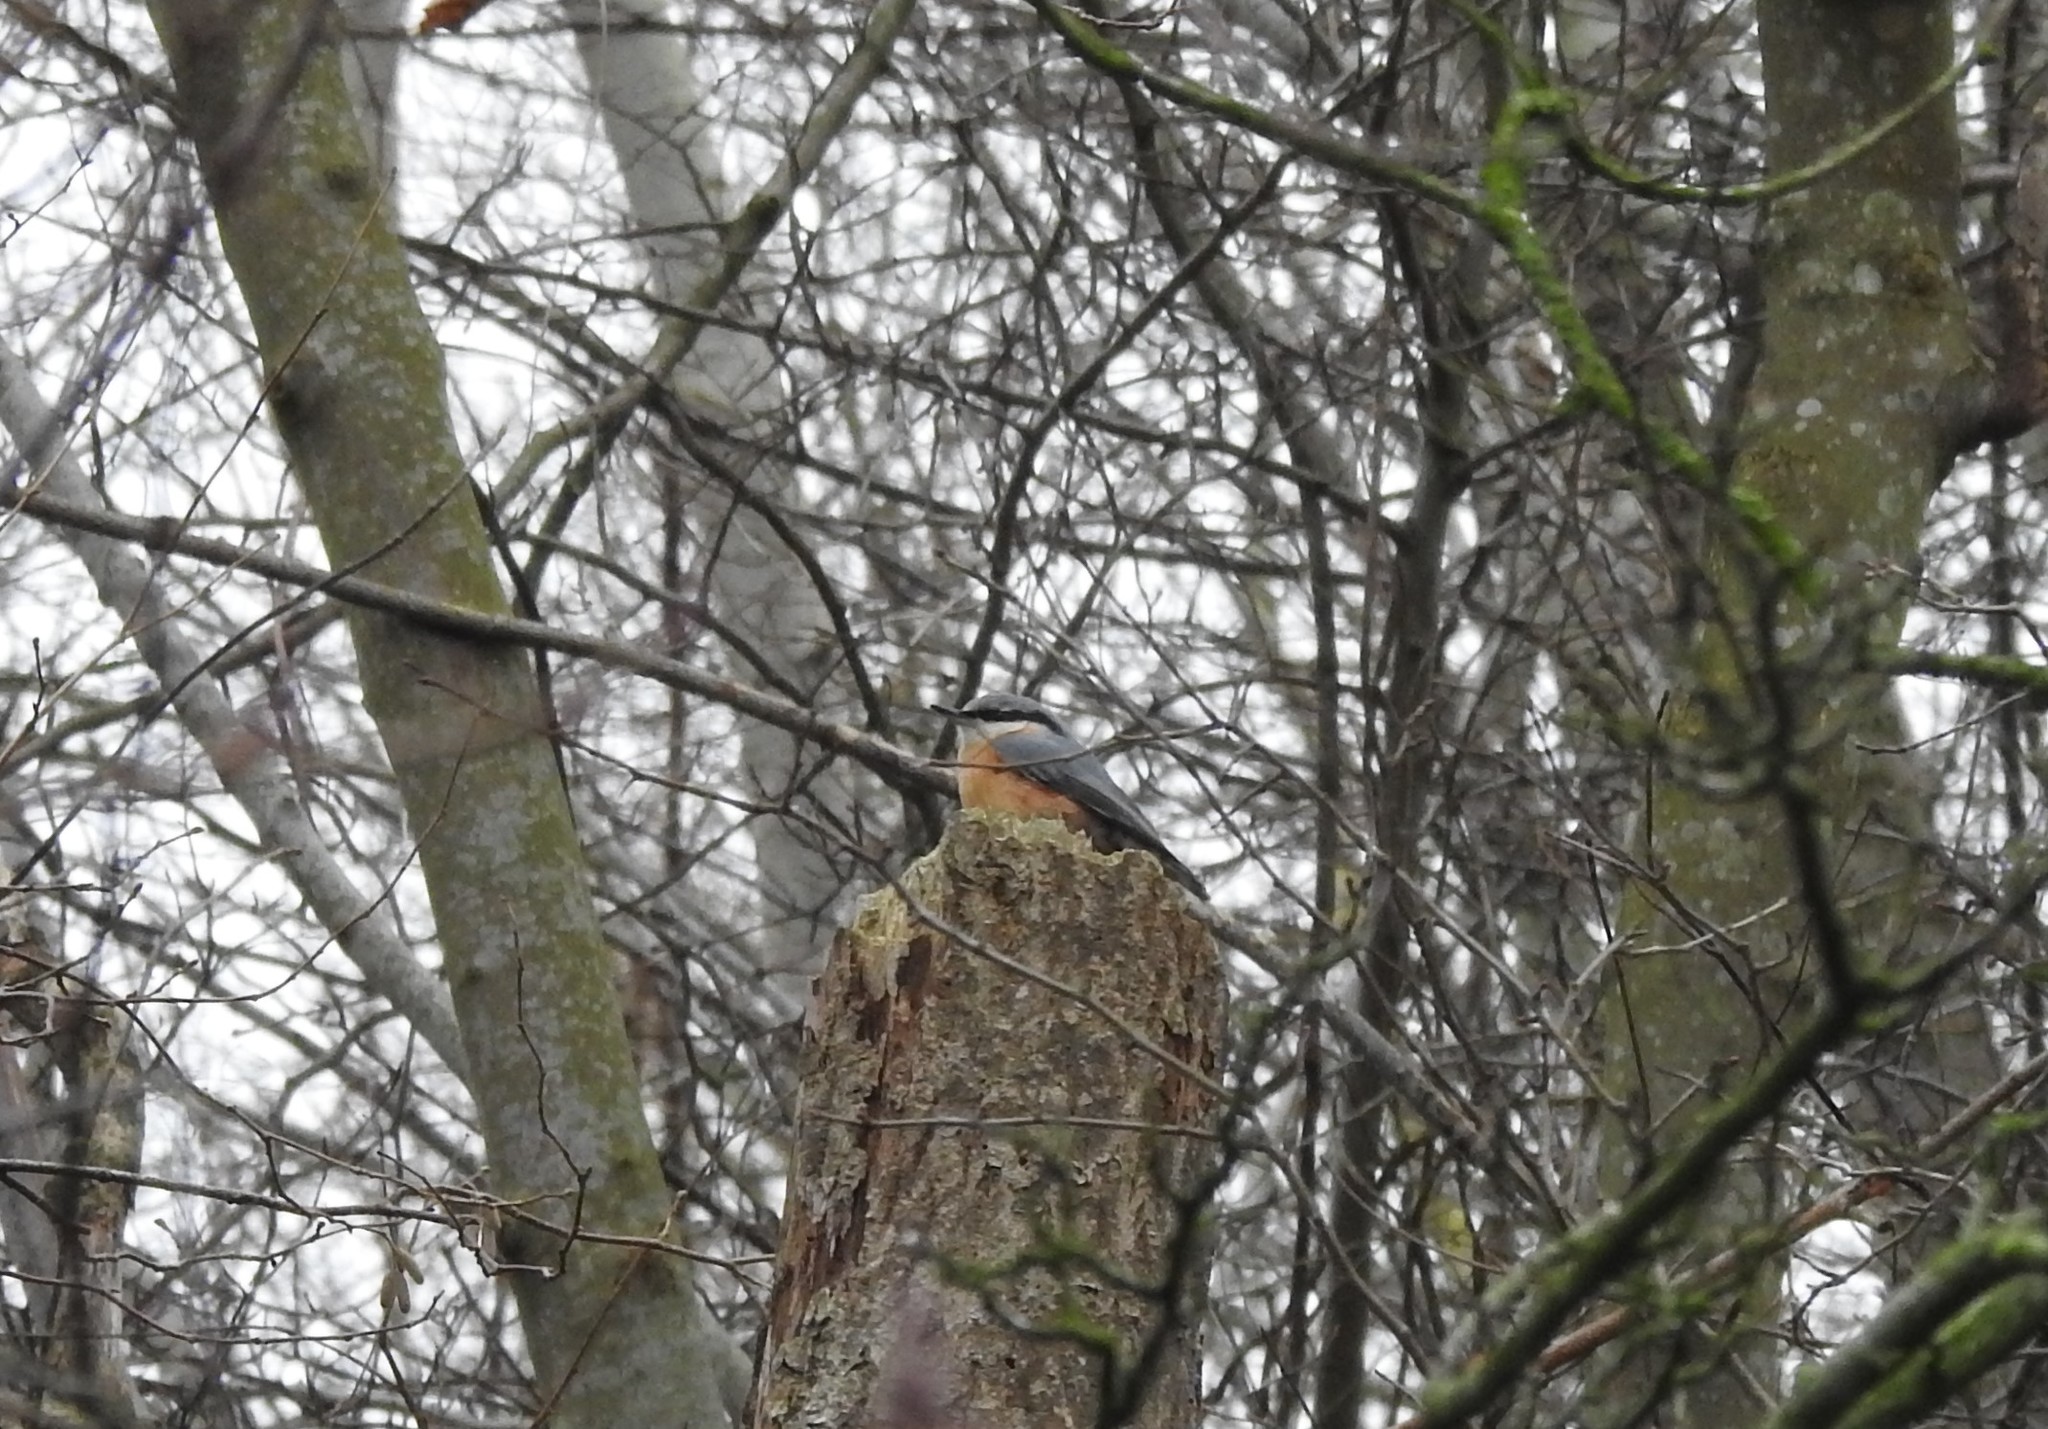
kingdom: Animalia
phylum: Chordata
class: Aves
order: Passeriformes
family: Sittidae
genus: Sitta
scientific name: Sitta europaea
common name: Eurasian nuthatch
